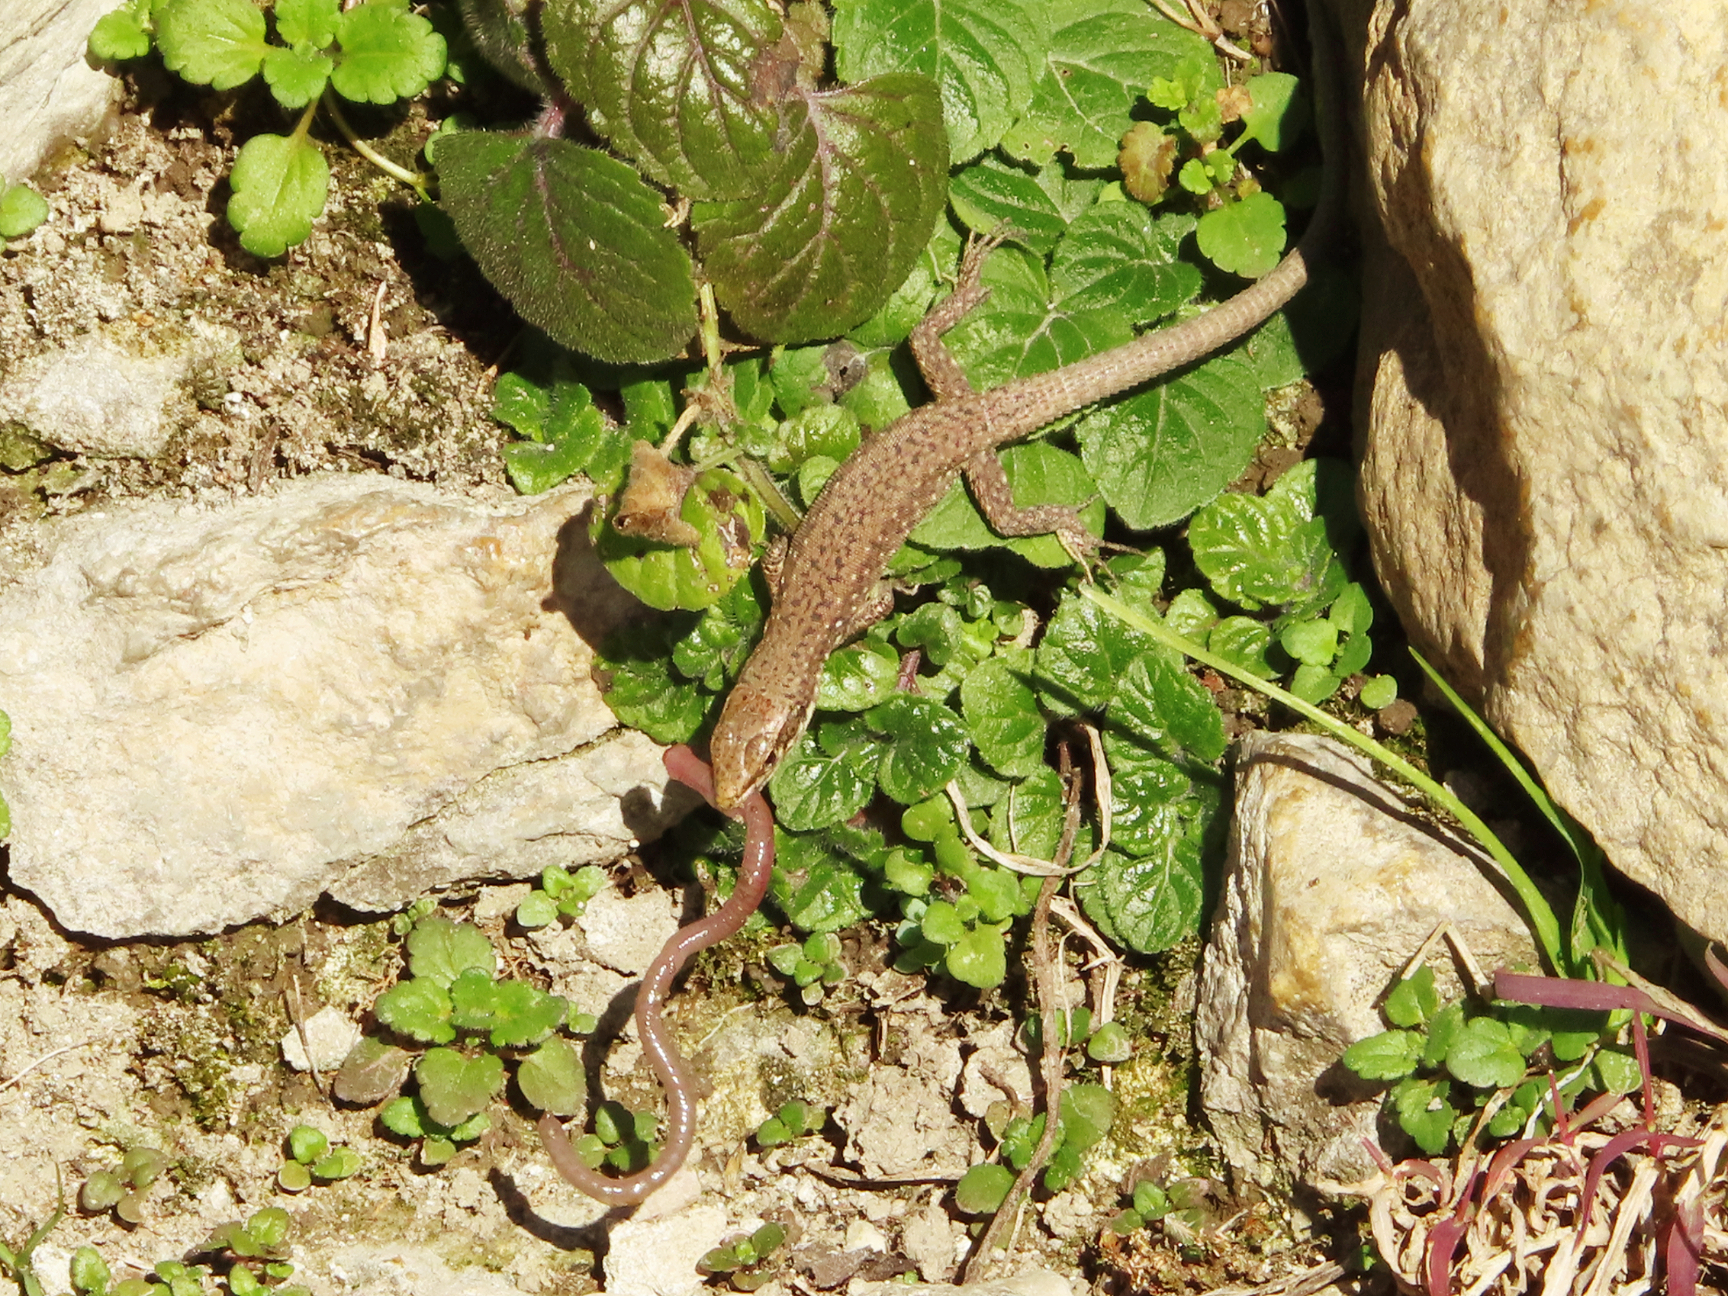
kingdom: Animalia
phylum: Chordata
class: Squamata
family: Lacertidae
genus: Darevskia
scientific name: Darevskia rudis
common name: Spiny-tailed lizard
